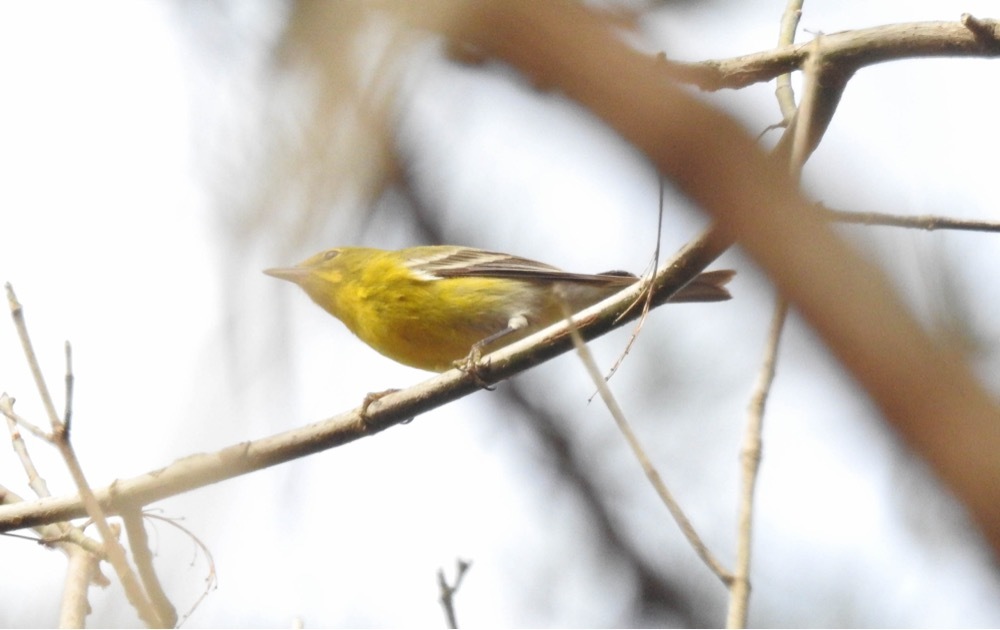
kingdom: Animalia
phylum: Chordata
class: Aves
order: Passeriformes
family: Parulidae
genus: Setophaga
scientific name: Setophaga pinus
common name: Pine warbler
